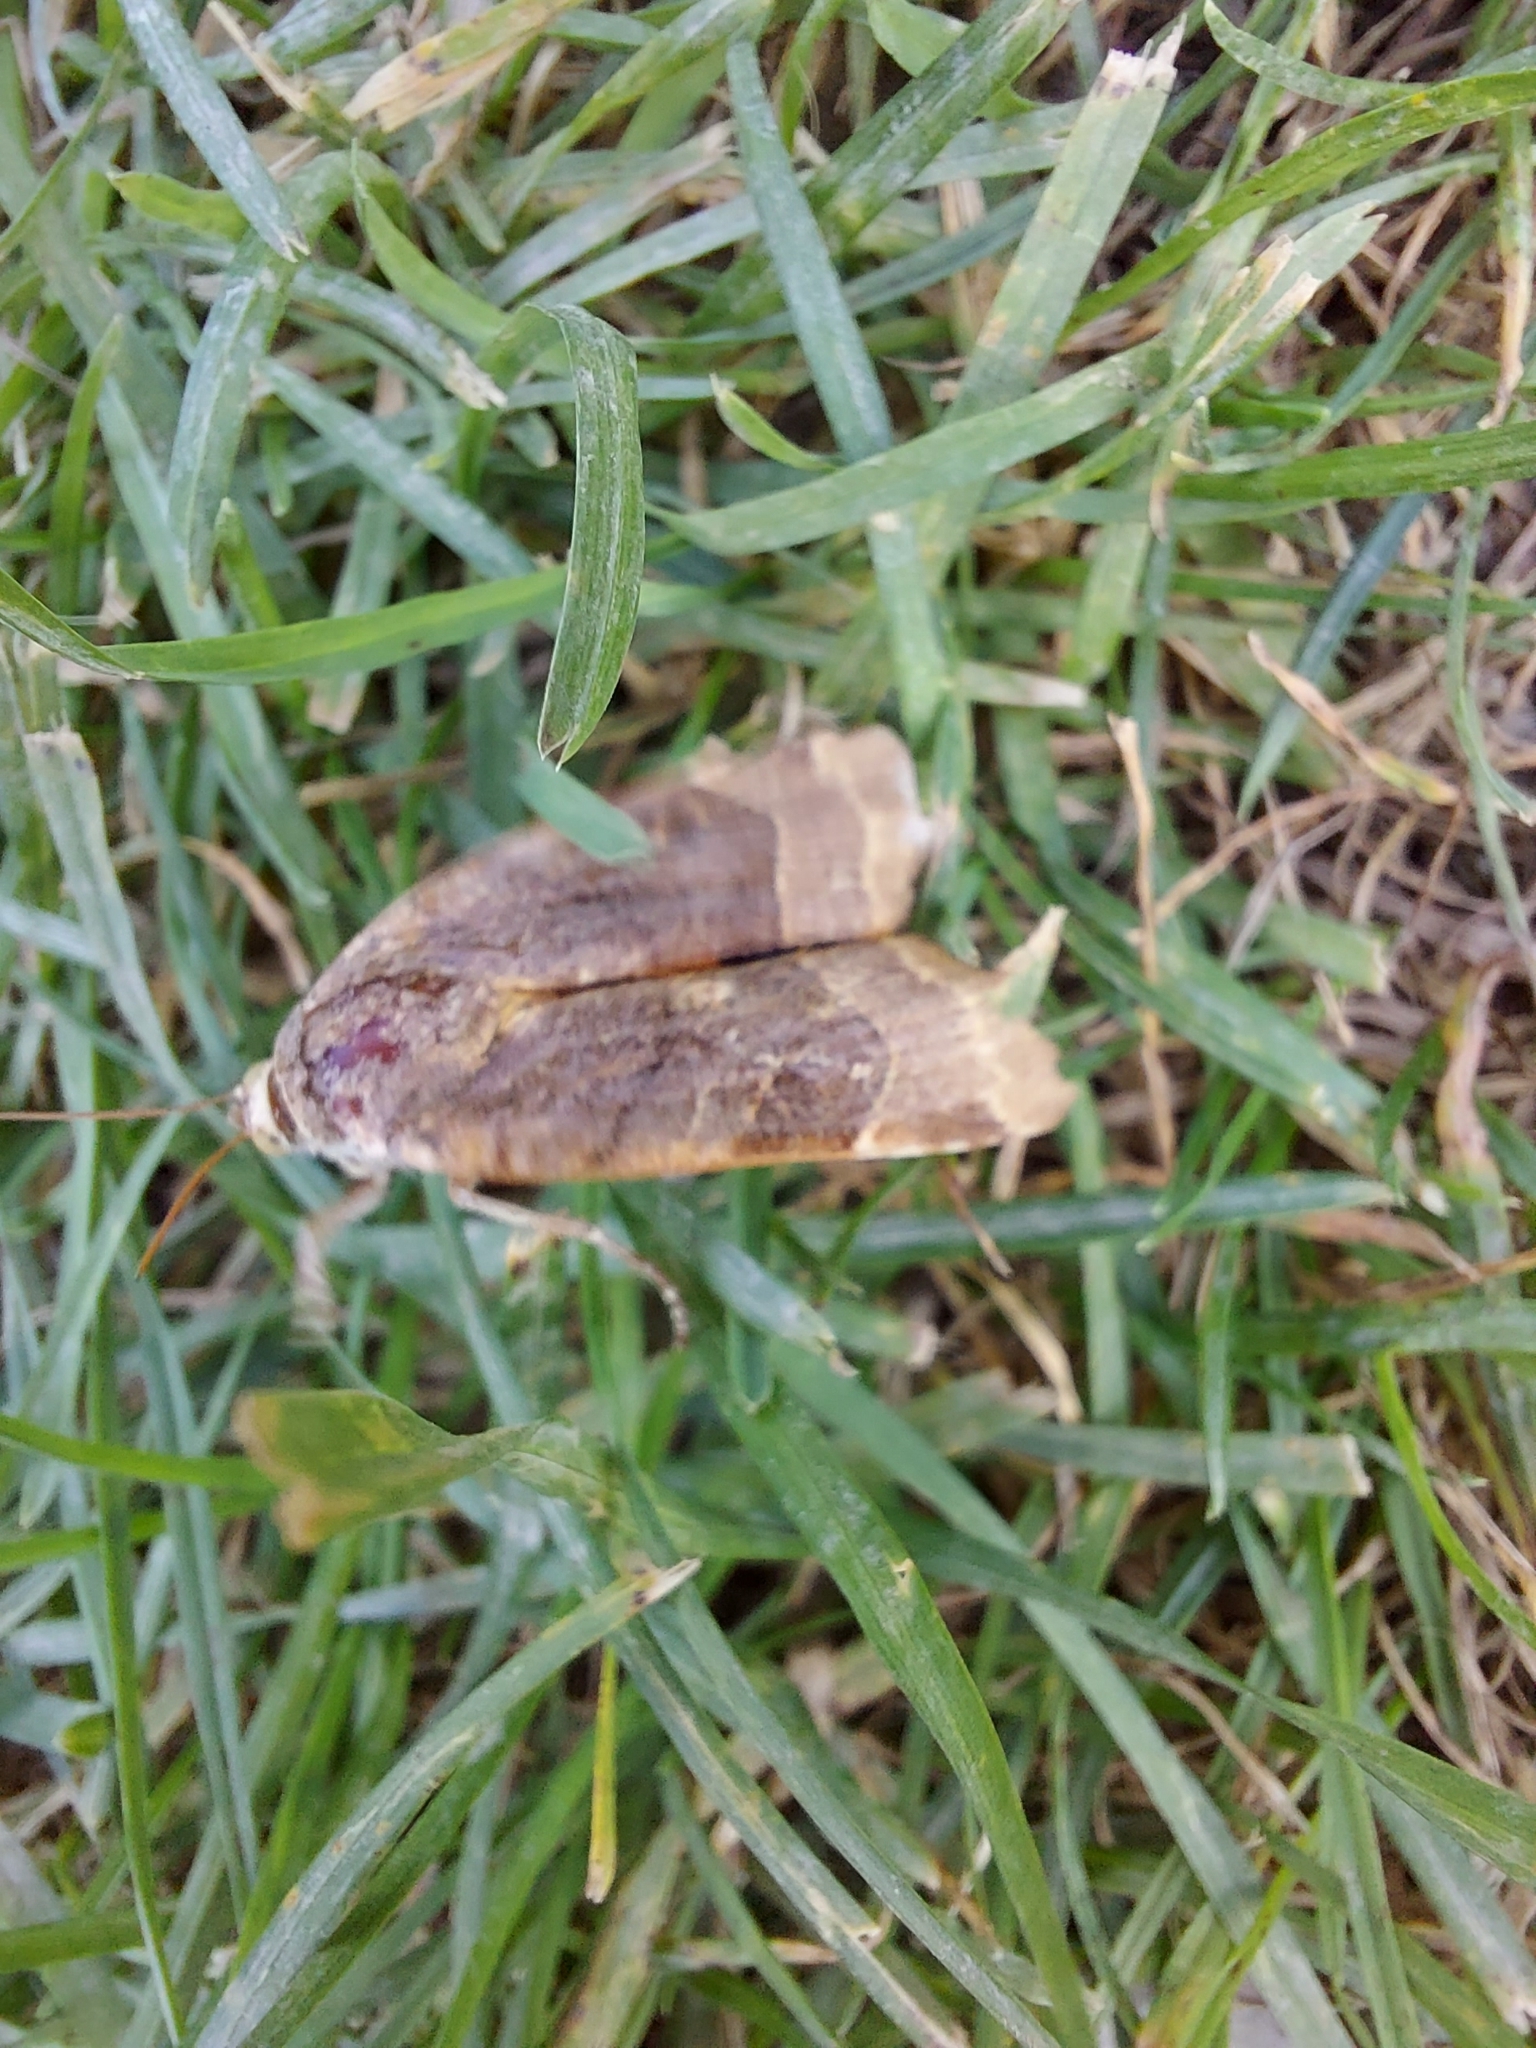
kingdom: Animalia
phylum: Arthropoda
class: Insecta
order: Lepidoptera
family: Noctuidae
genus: Noctua
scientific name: Noctua fimbriata
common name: Broad-bordered yellow underwing
